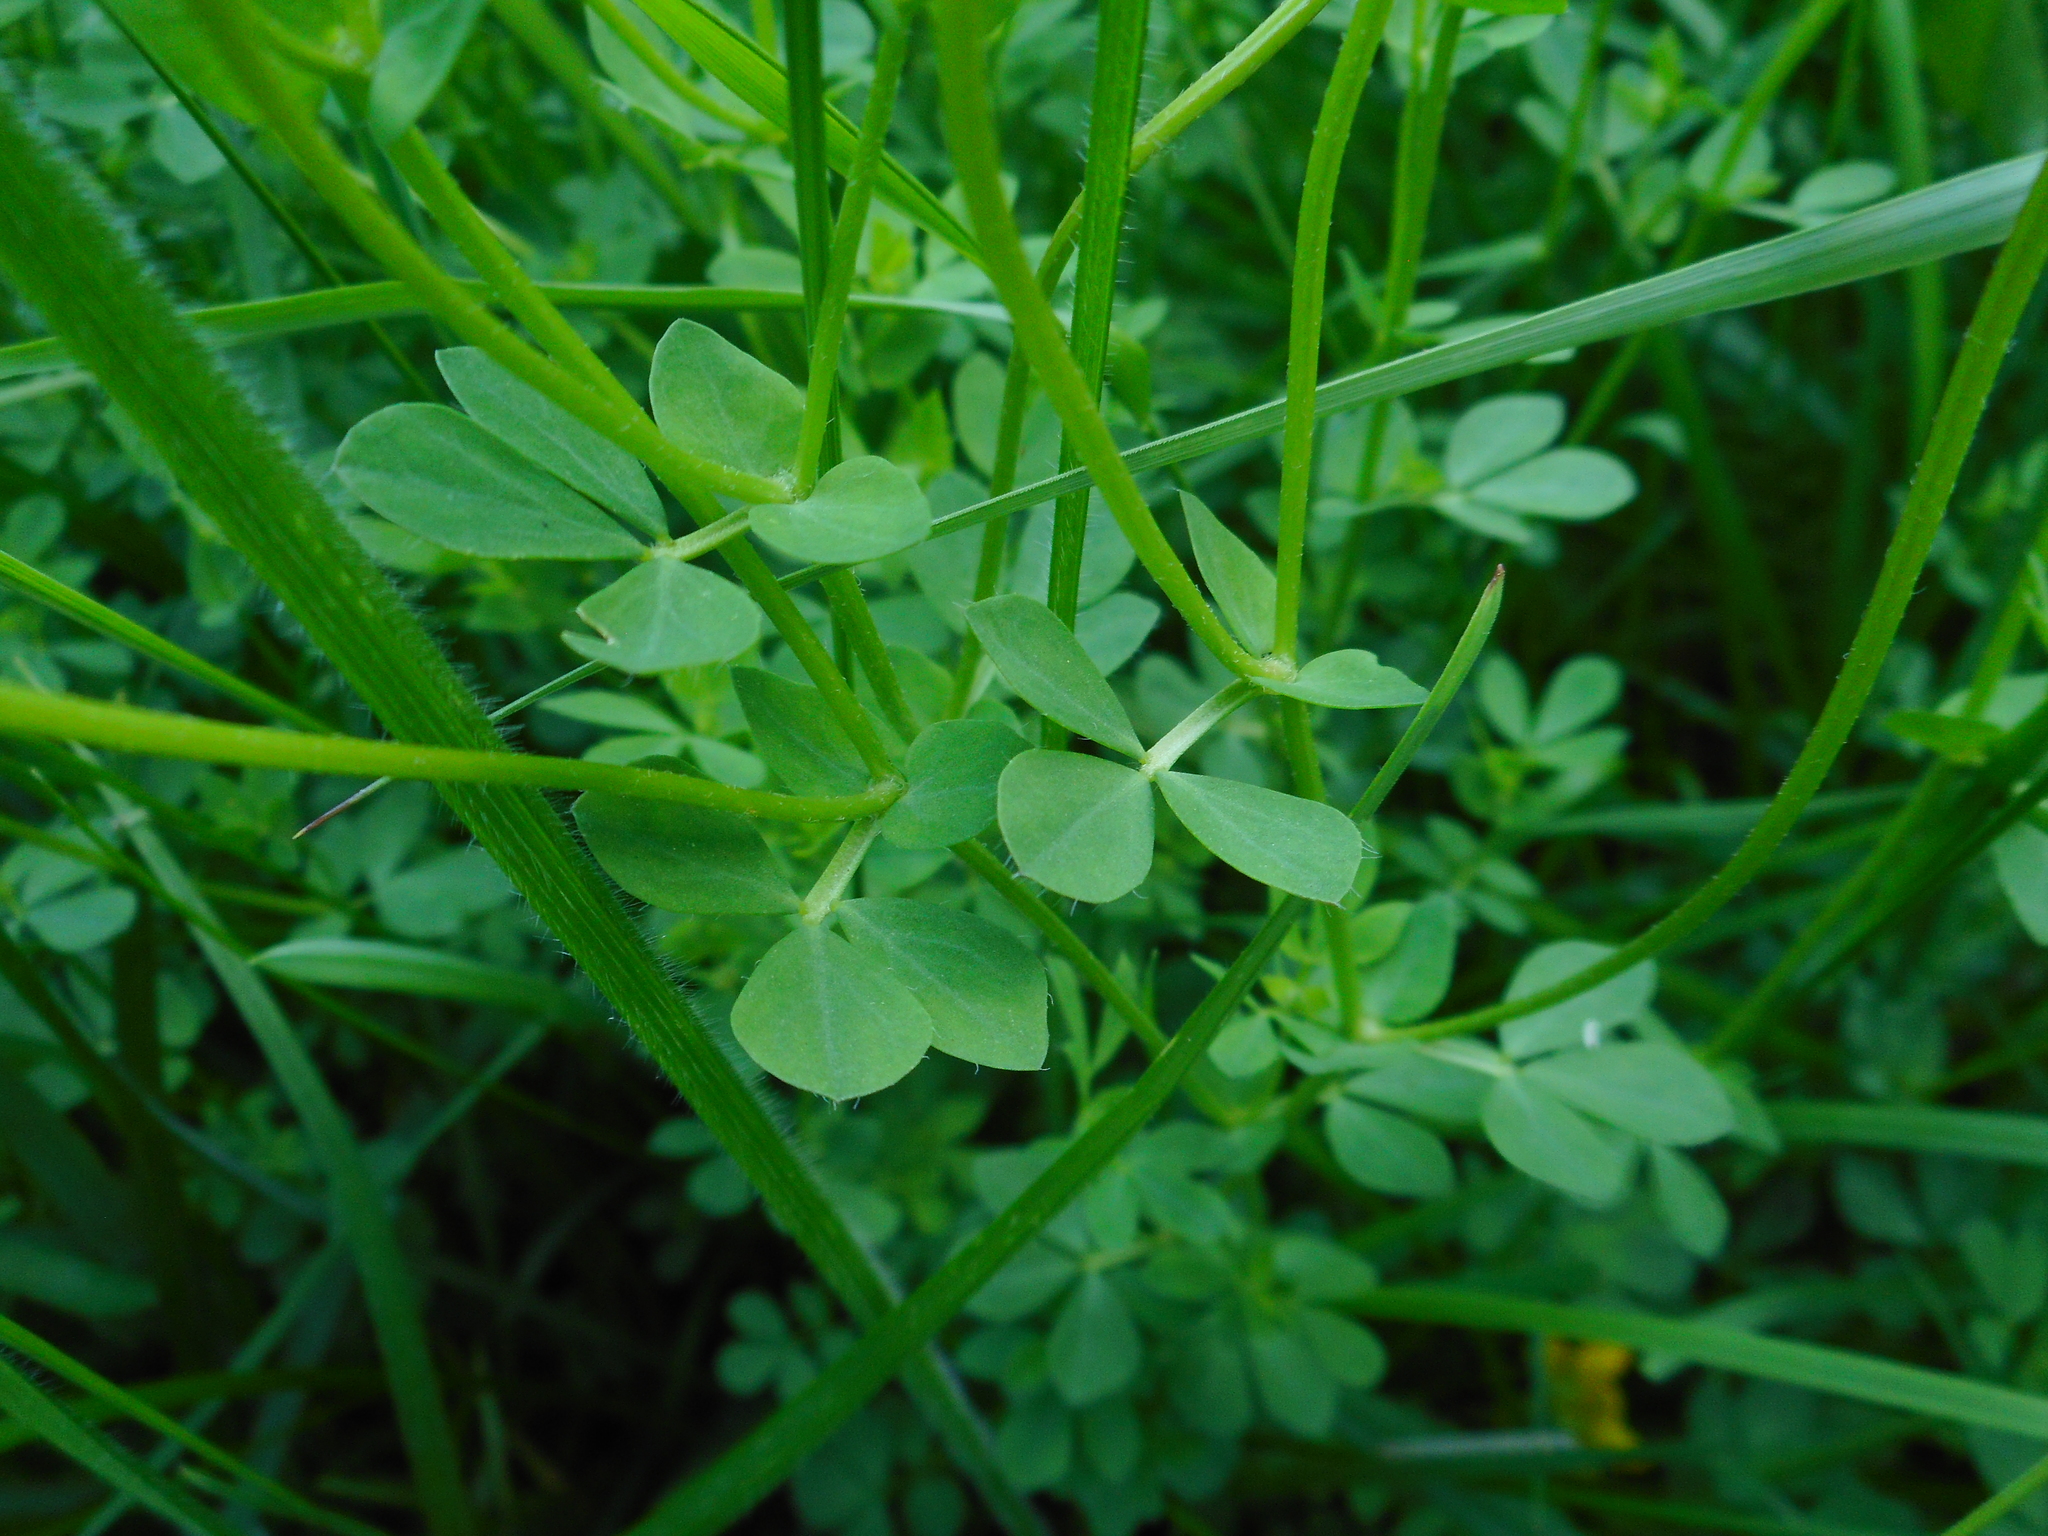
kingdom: Plantae
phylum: Tracheophyta
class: Magnoliopsida
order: Fabales
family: Fabaceae
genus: Lotus
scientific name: Lotus corniculatus
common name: Common bird's-foot-trefoil
